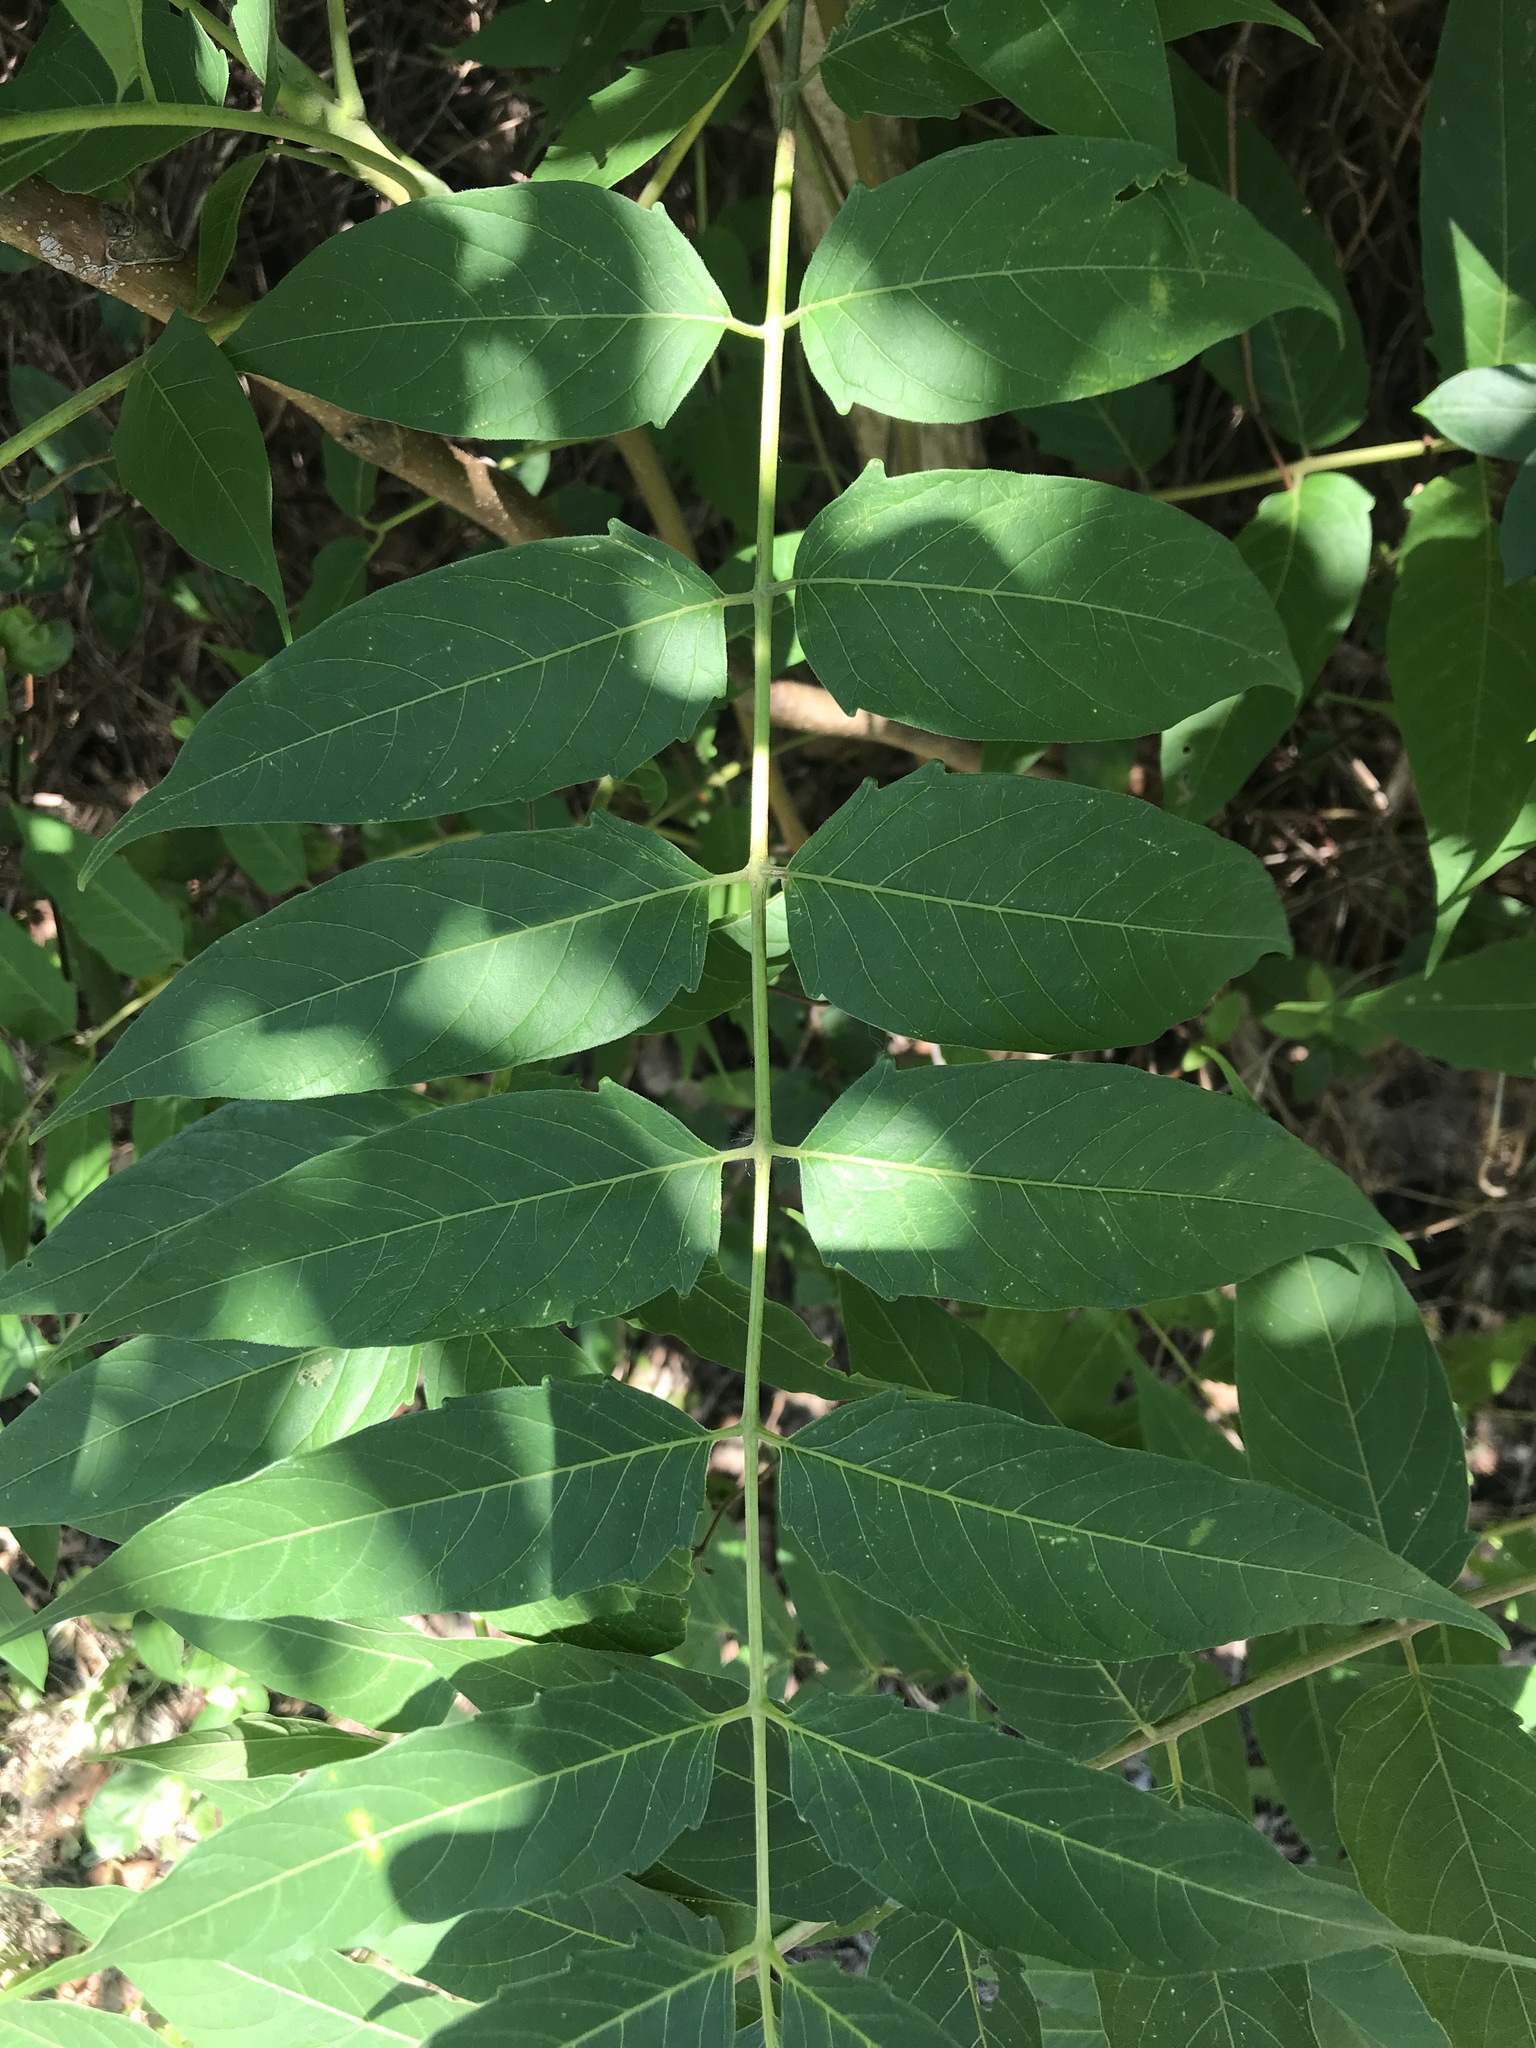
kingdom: Plantae
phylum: Tracheophyta
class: Magnoliopsida
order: Sapindales
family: Simaroubaceae
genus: Ailanthus
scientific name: Ailanthus altissima
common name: Tree-of-heaven
